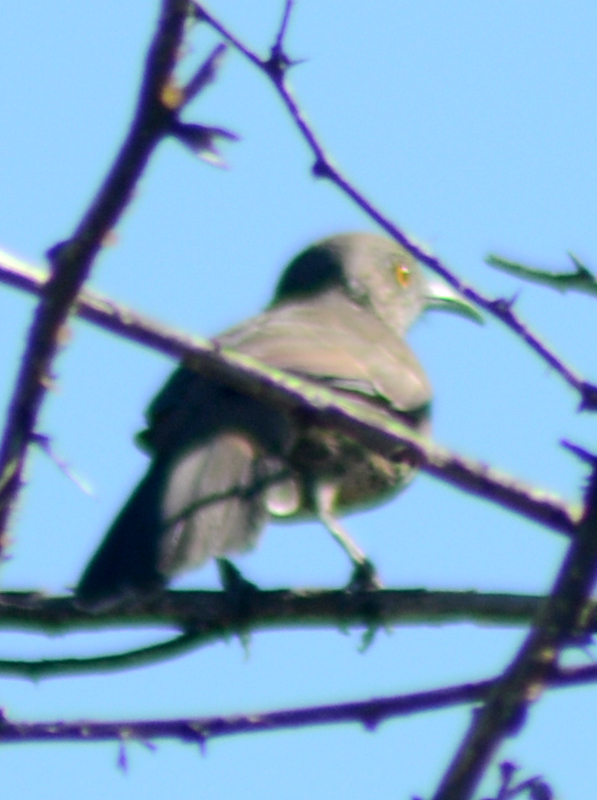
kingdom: Animalia
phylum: Chordata
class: Aves
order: Passeriformes
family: Mimidae
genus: Toxostoma
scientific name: Toxostoma cinereum
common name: Gray thrasher
